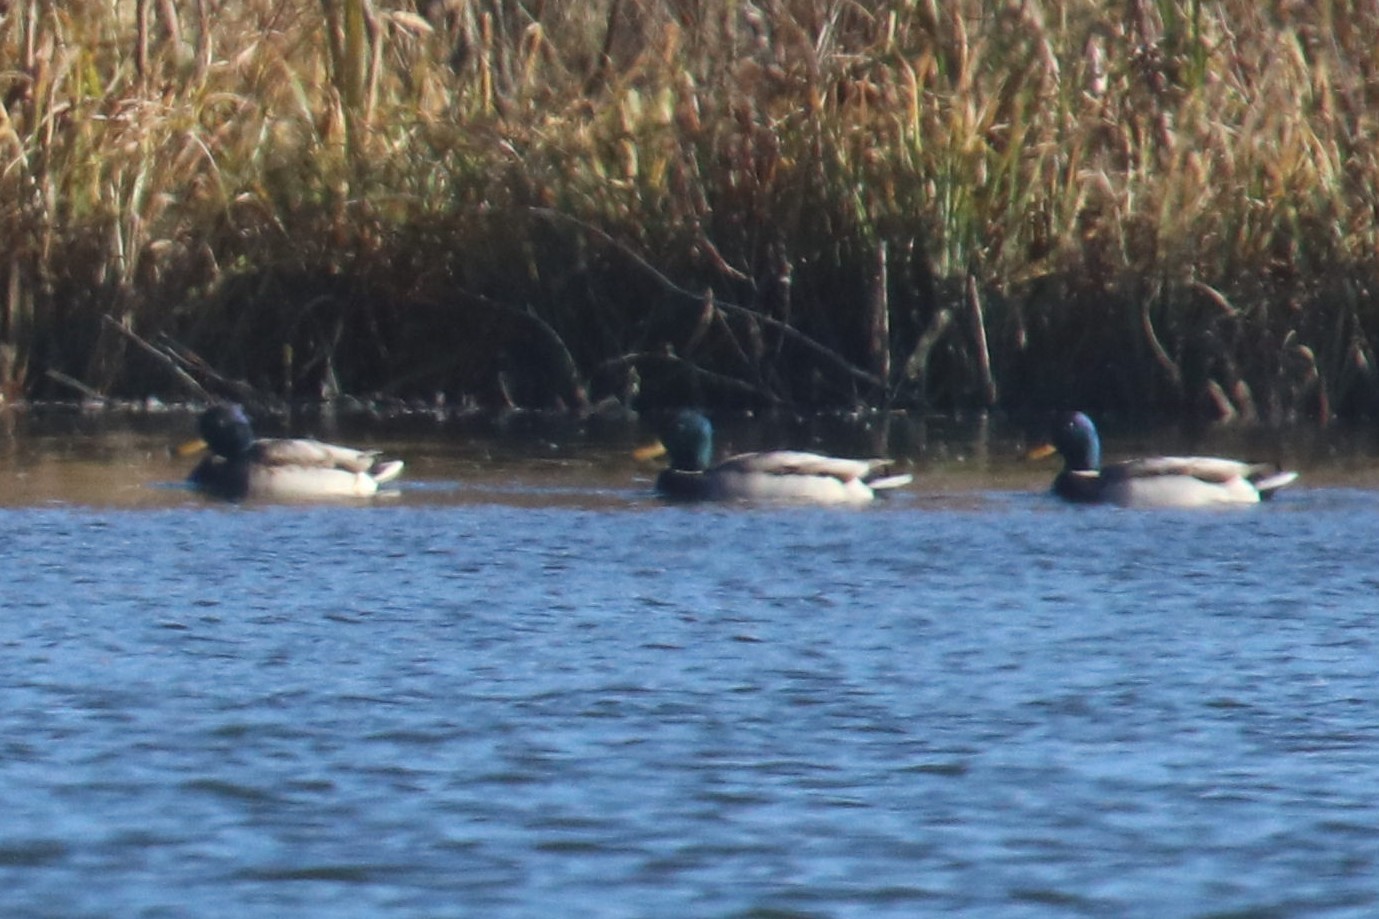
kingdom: Animalia
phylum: Chordata
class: Aves
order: Anseriformes
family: Anatidae
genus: Anas
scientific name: Anas platyrhynchos
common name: Mallard
